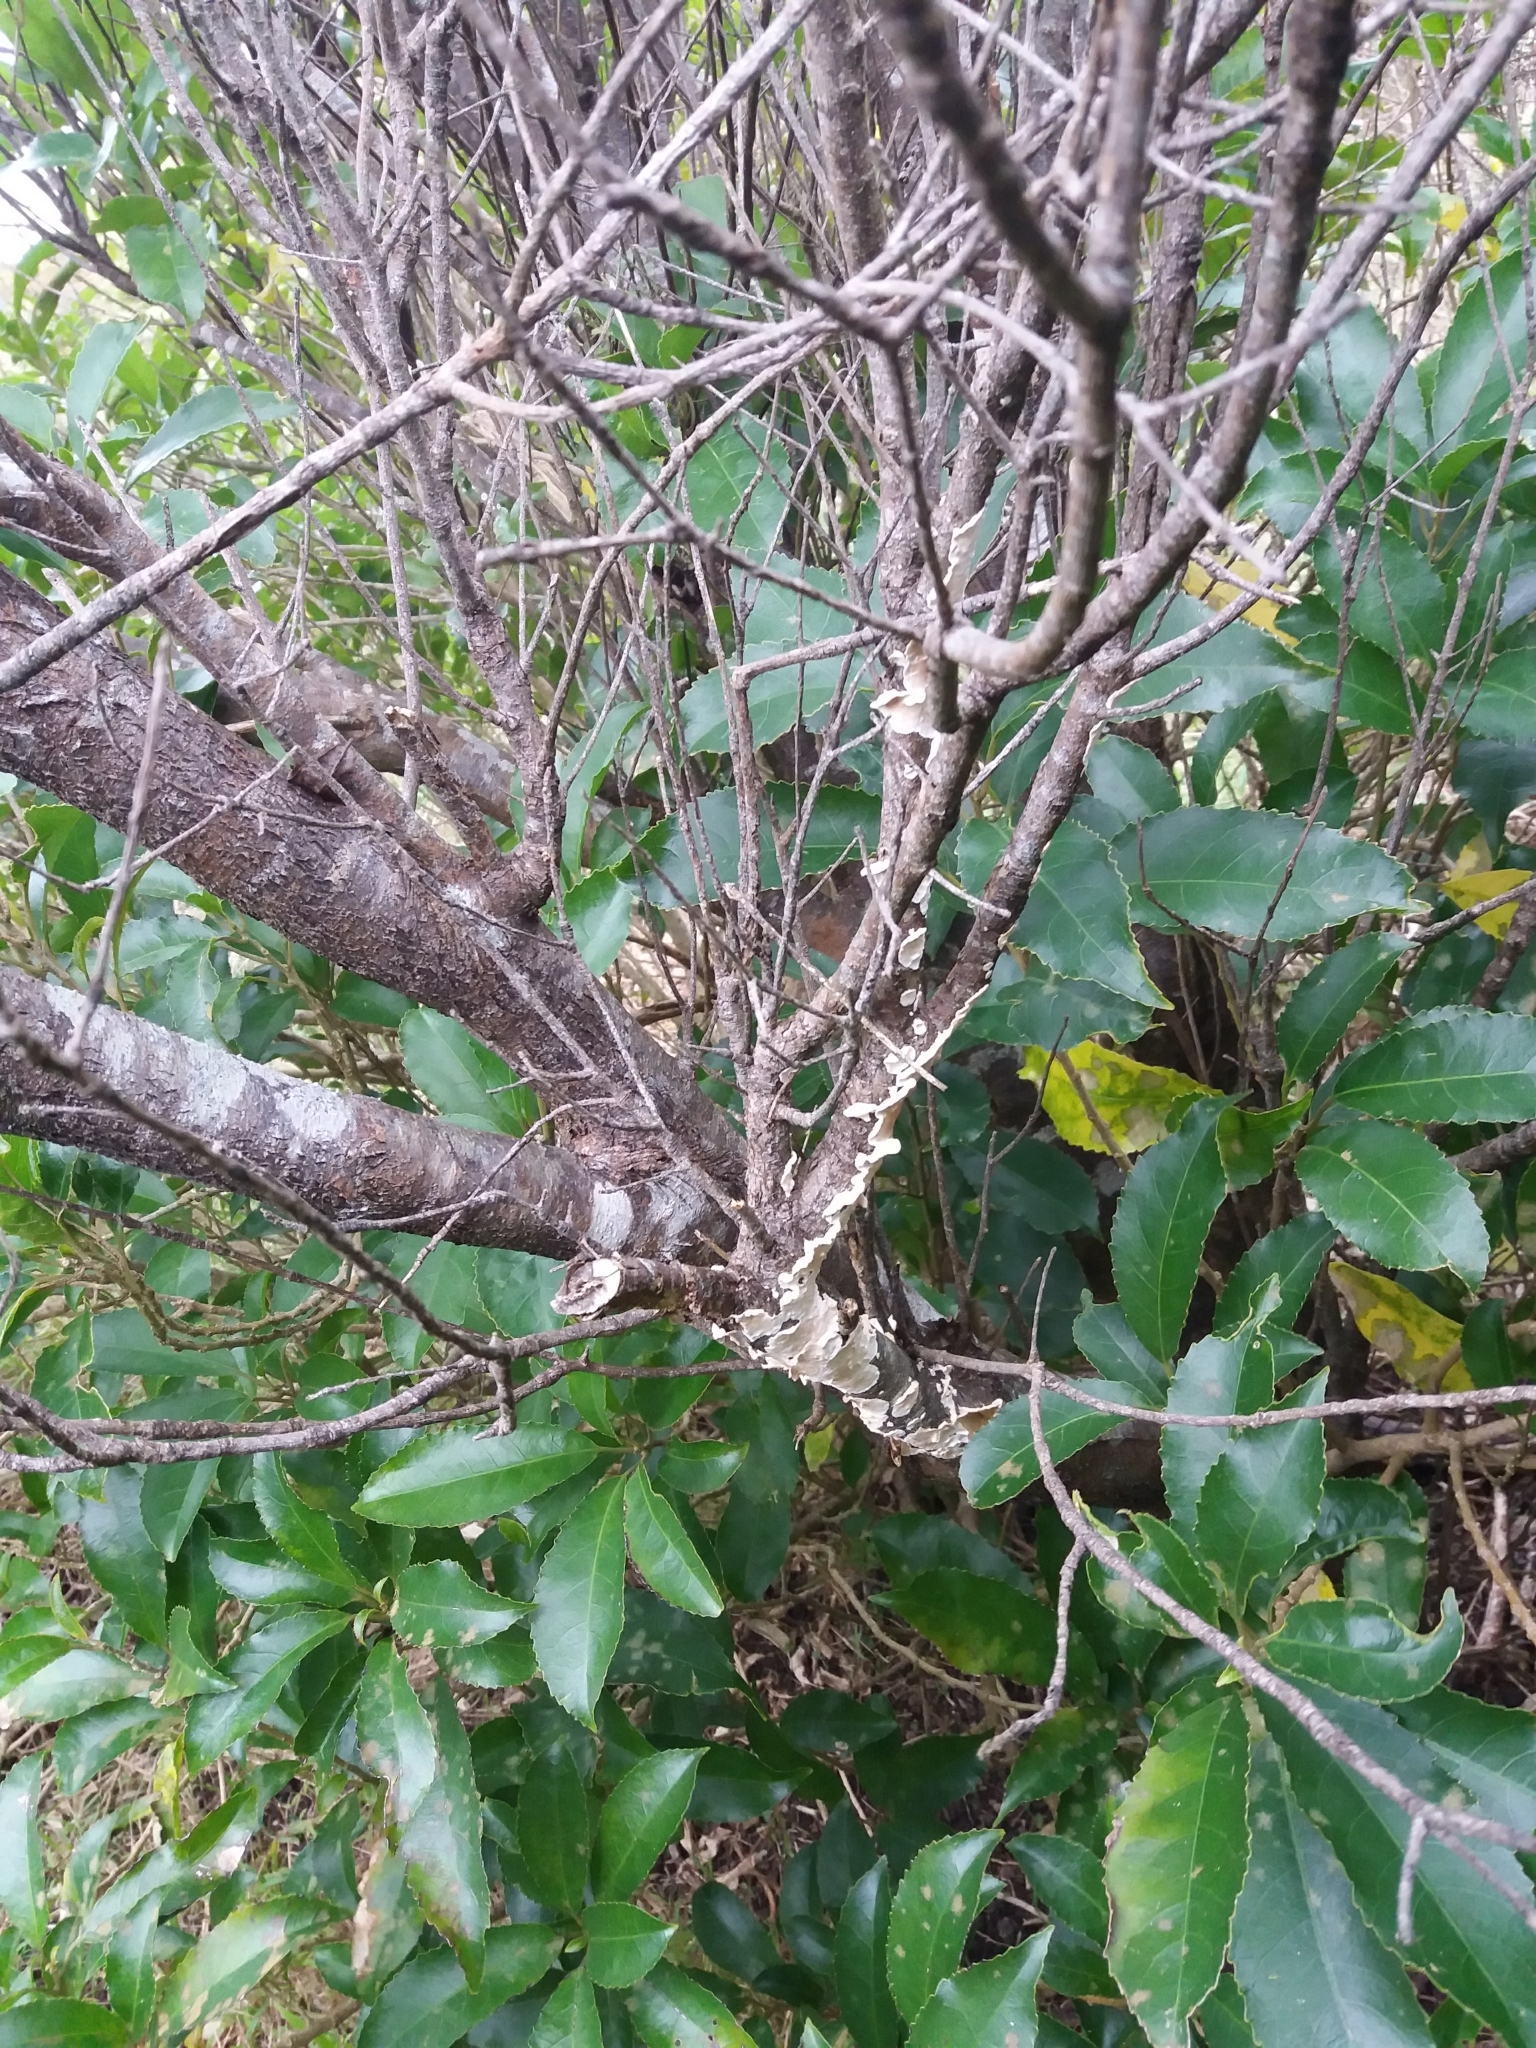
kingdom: Plantae
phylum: Tracheophyta
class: Magnoliopsida
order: Malpighiales
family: Violaceae
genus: Melicytus
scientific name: Melicytus ramiflorus
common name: Mahoe
